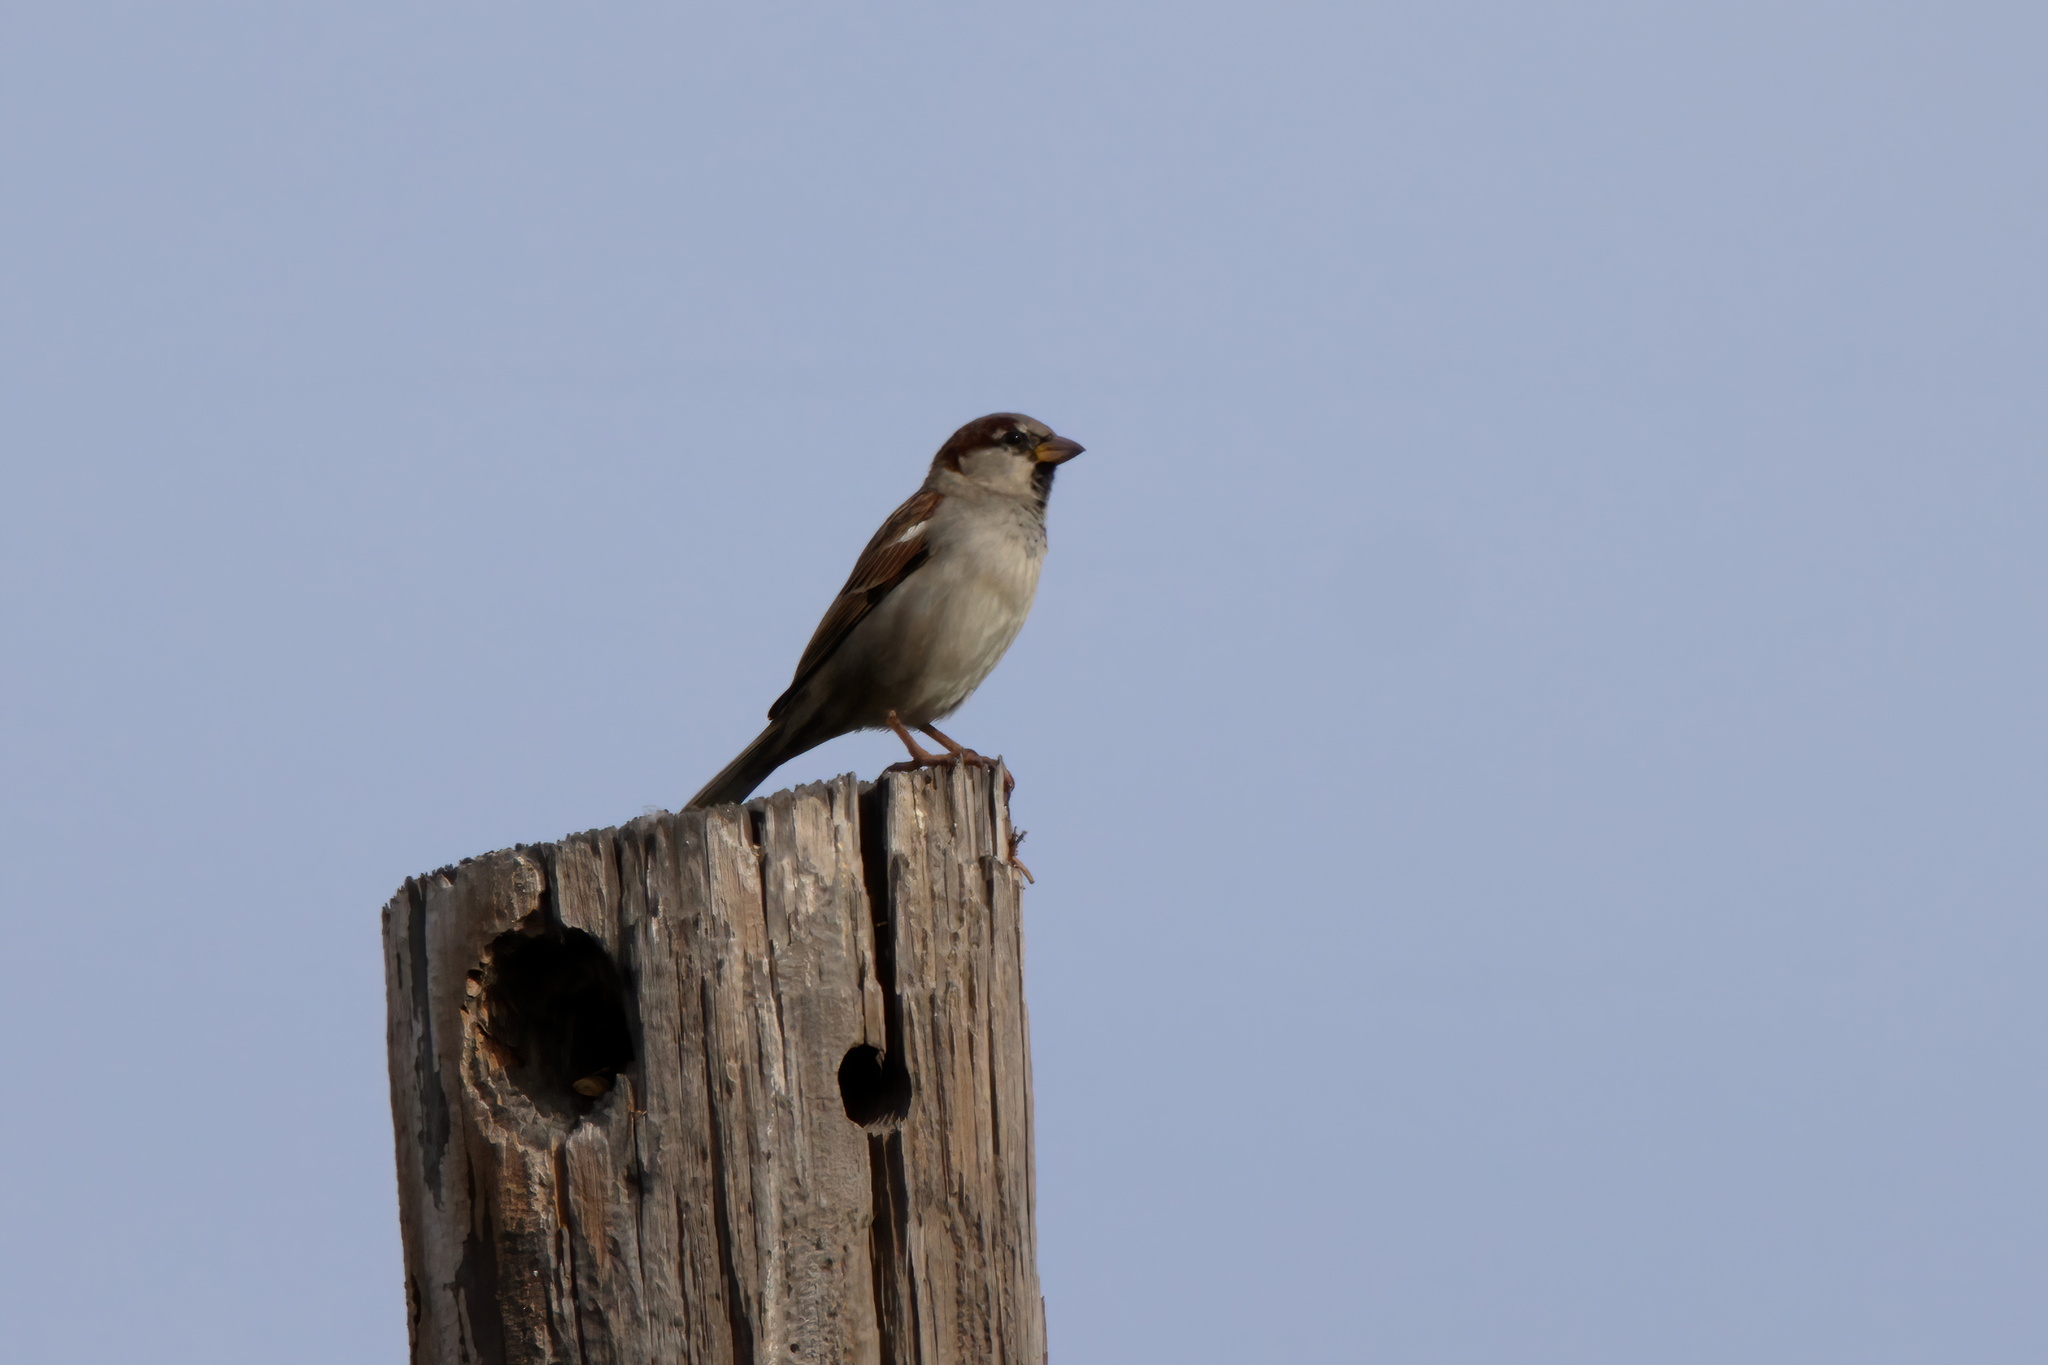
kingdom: Animalia
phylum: Chordata
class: Aves
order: Passeriformes
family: Passeridae
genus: Passer
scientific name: Passer domesticus
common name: House sparrow
